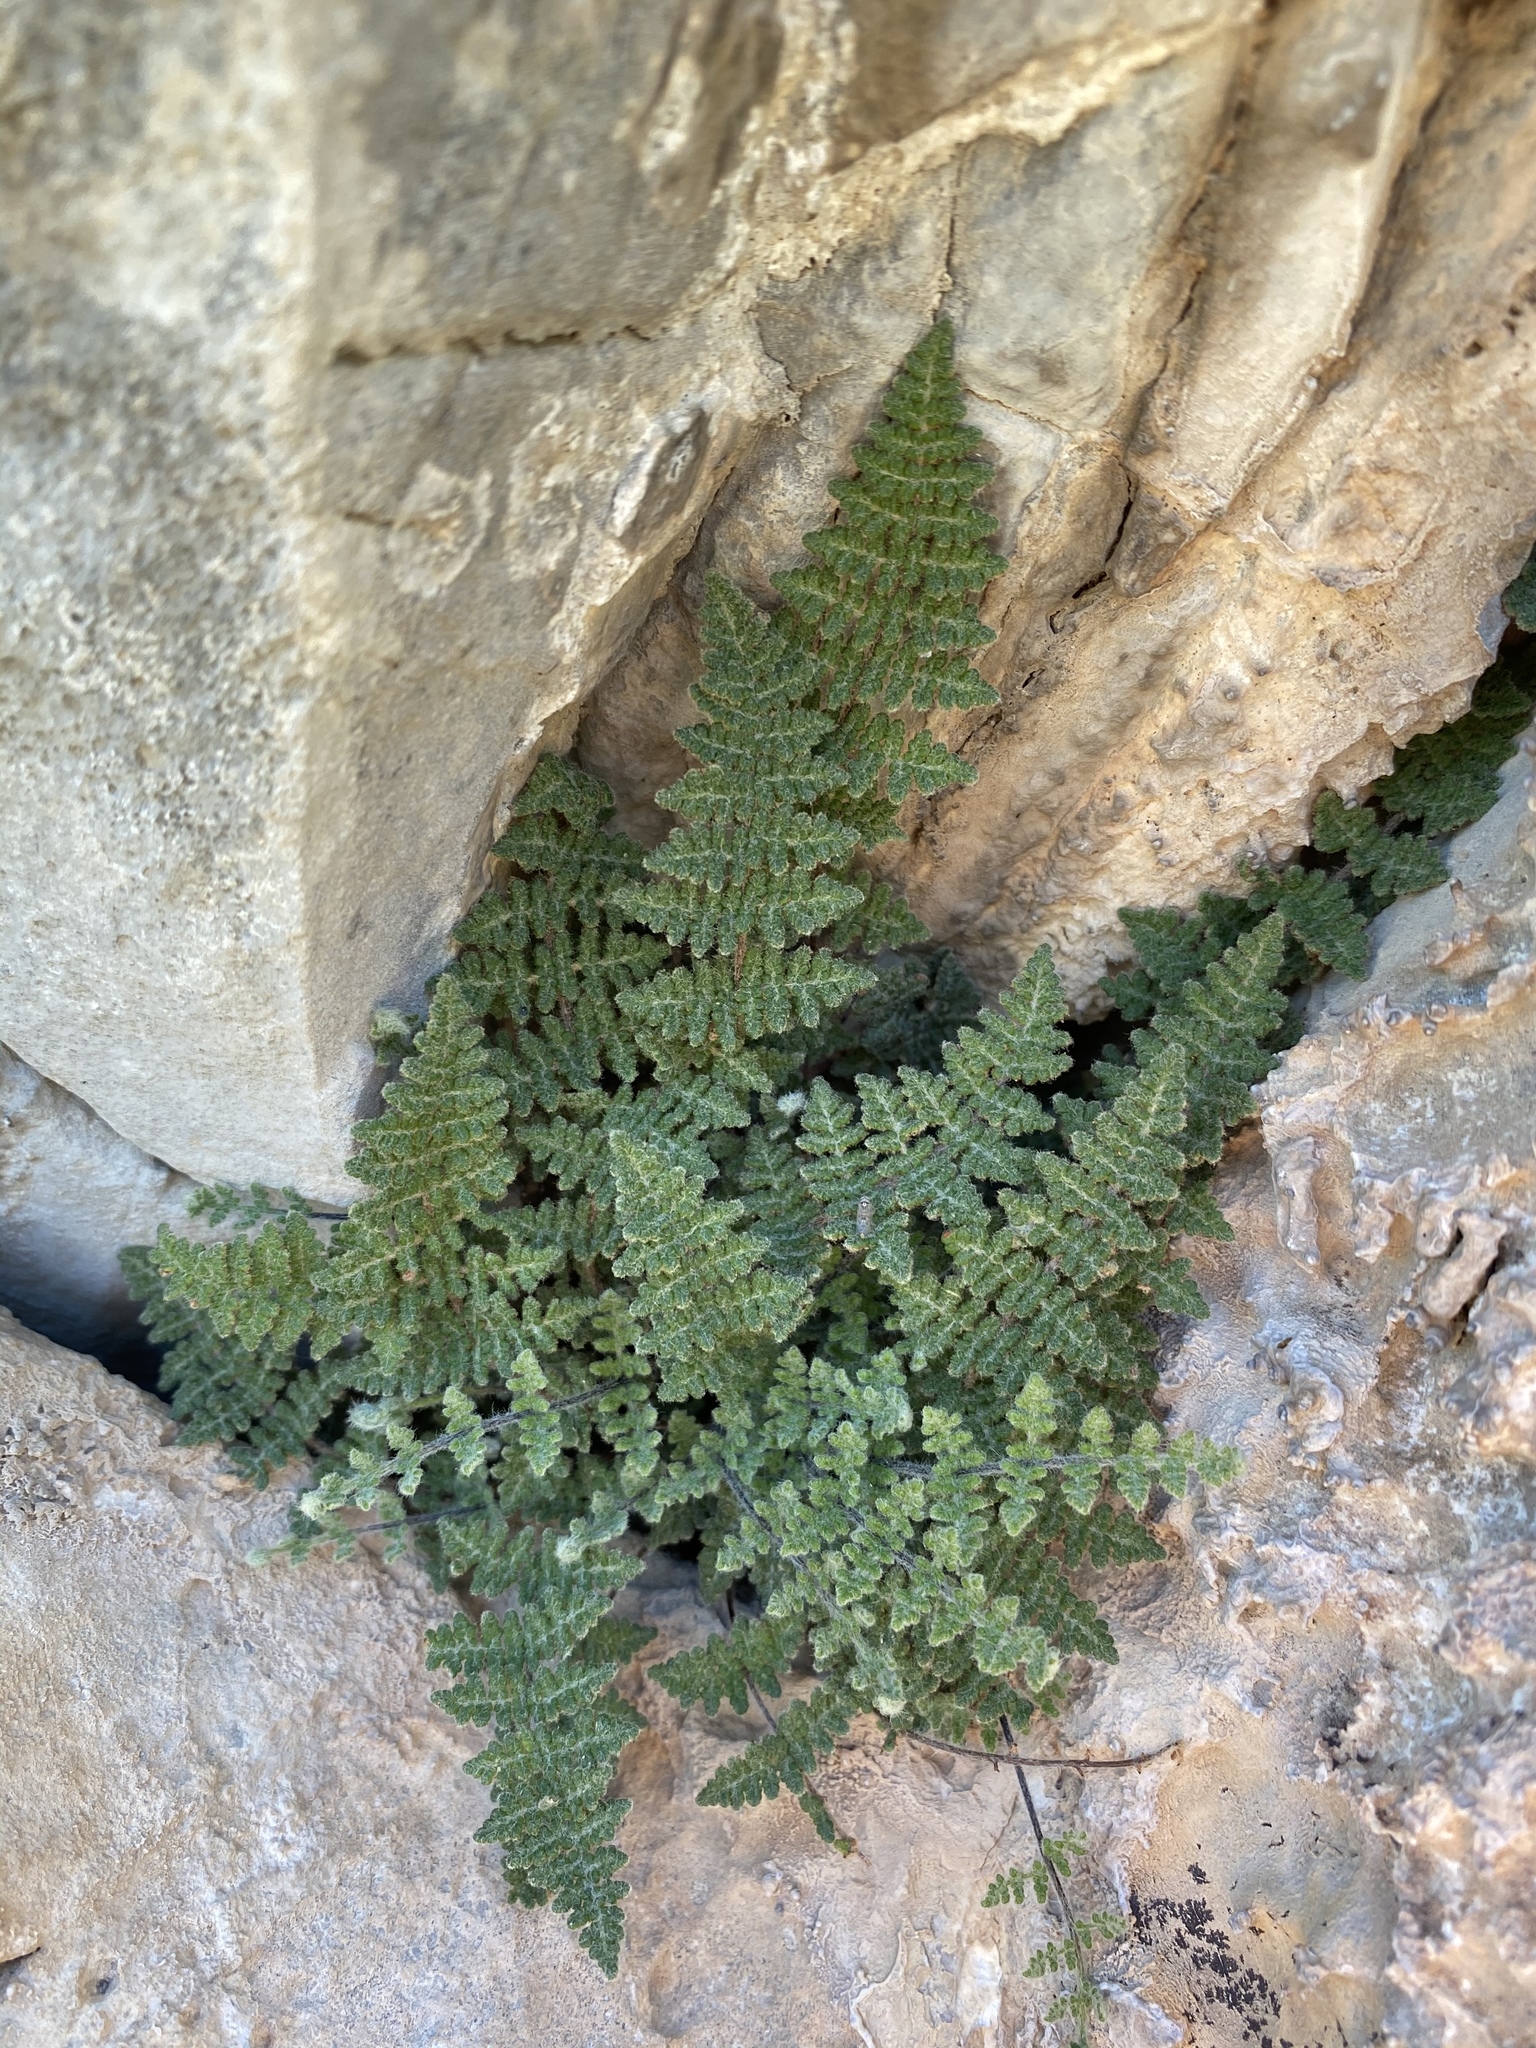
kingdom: Plantae
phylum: Tracheophyta
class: Polypodiopsida
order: Polypodiales
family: Pteridaceae
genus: Myriopteris
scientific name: Myriopteris gracilis
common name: Fee's lip fern
